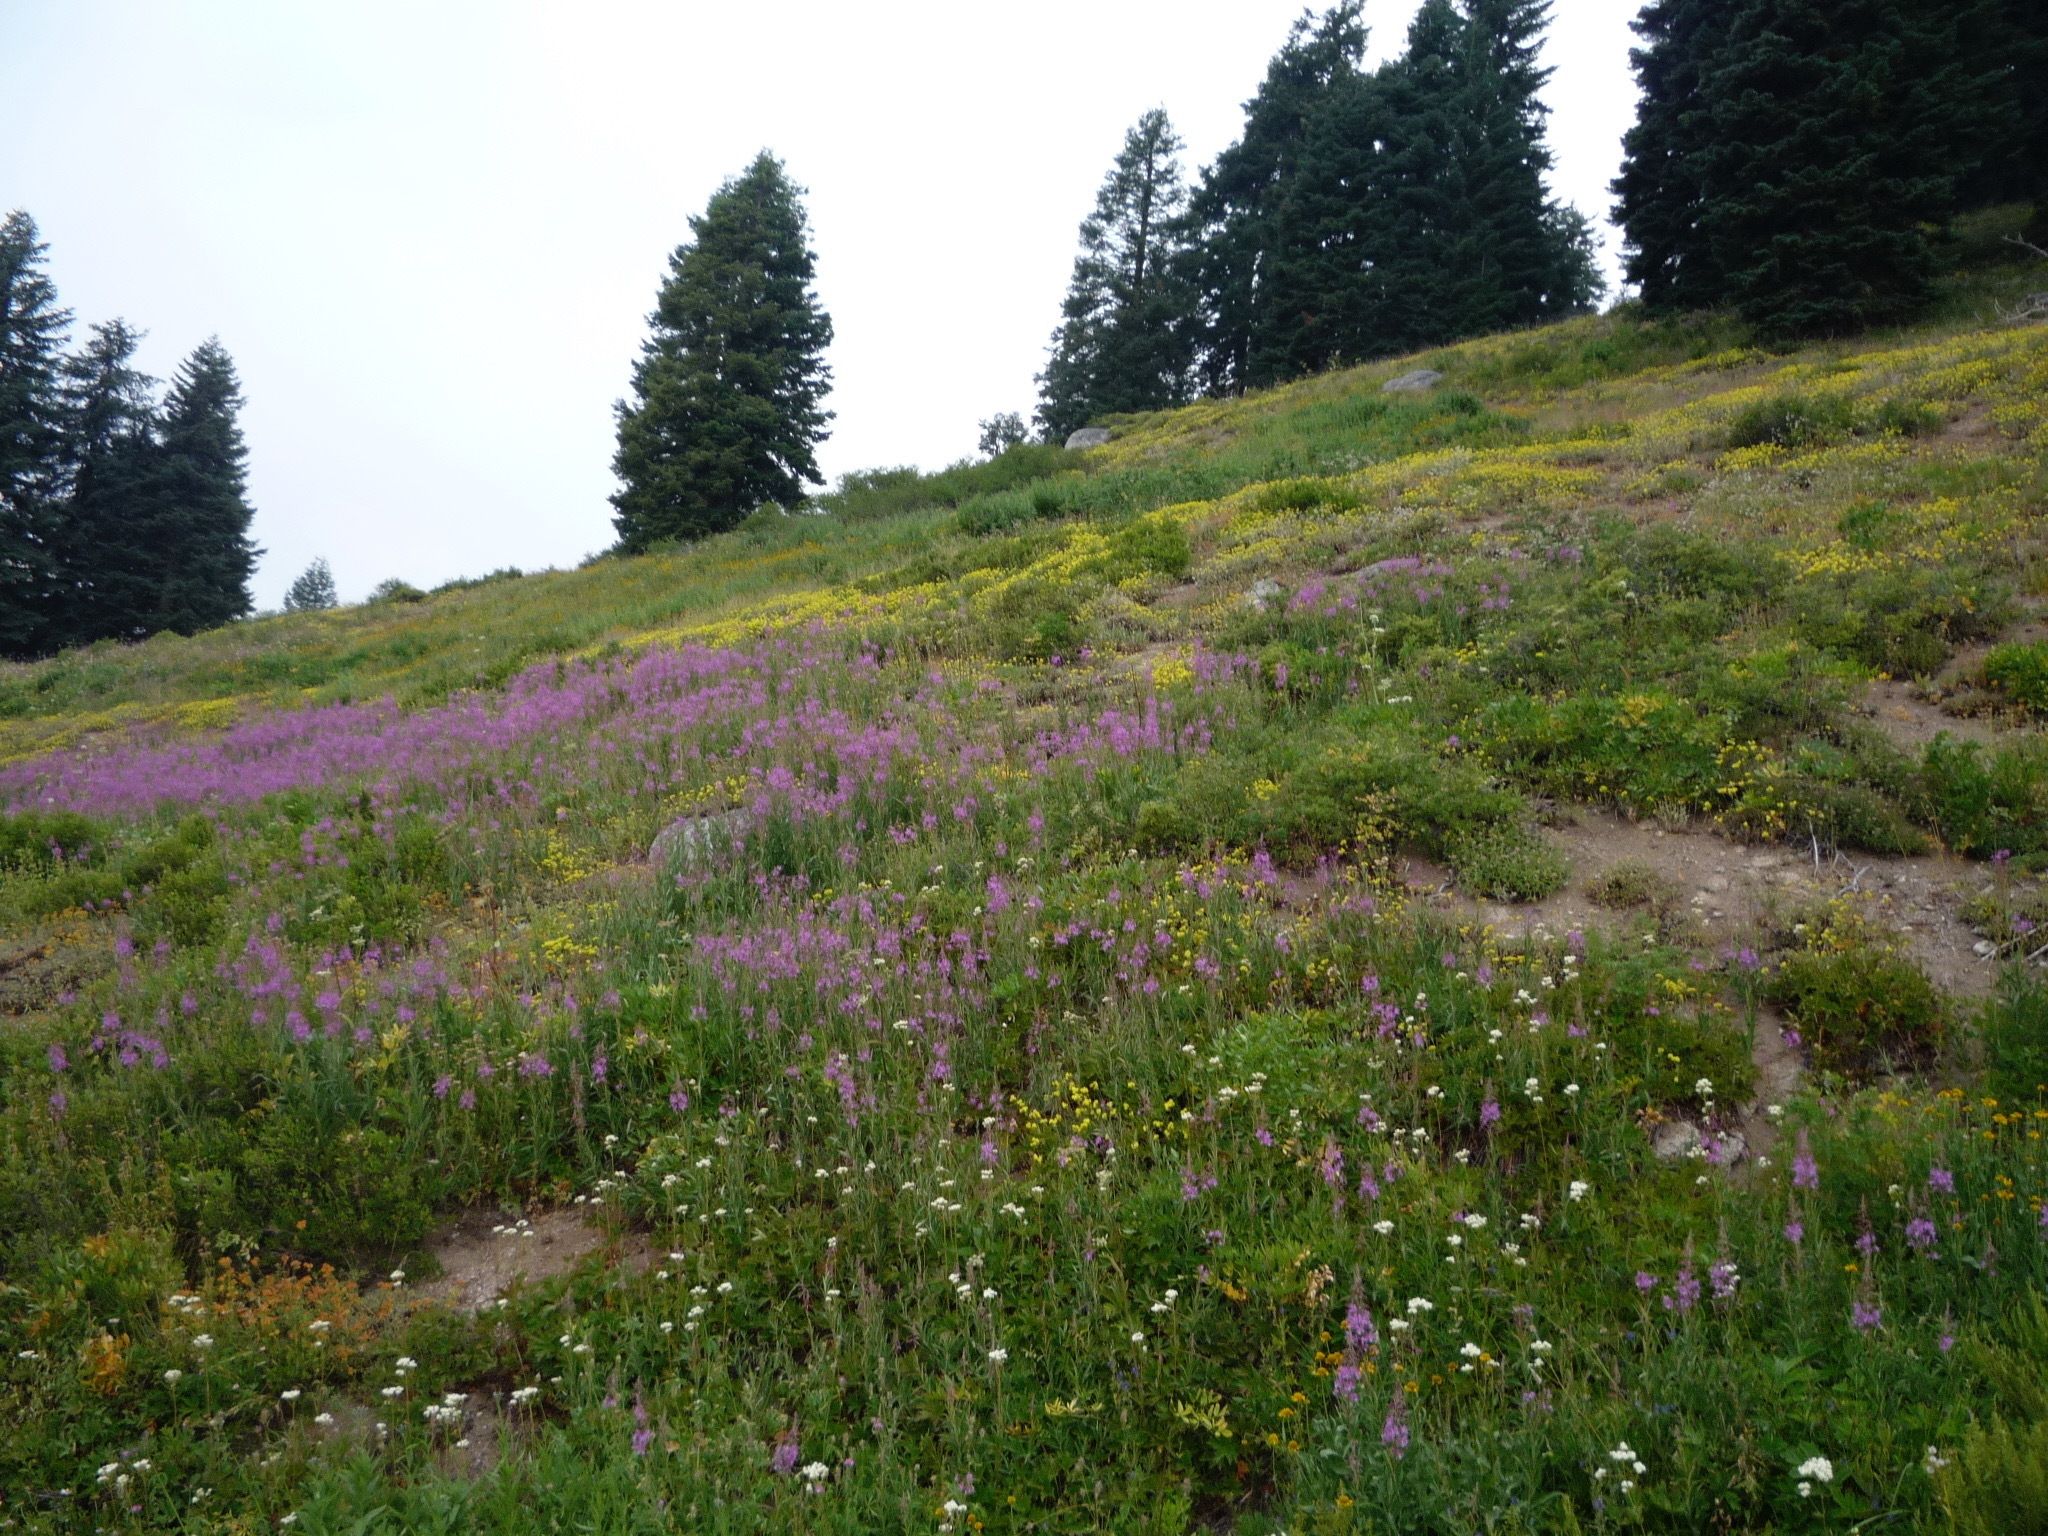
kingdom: Plantae
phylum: Tracheophyta
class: Magnoliopsida
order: Myrtales
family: Onagraceae
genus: Chamaenerion
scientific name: Chamaenerion angustifolium
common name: Fireweed
